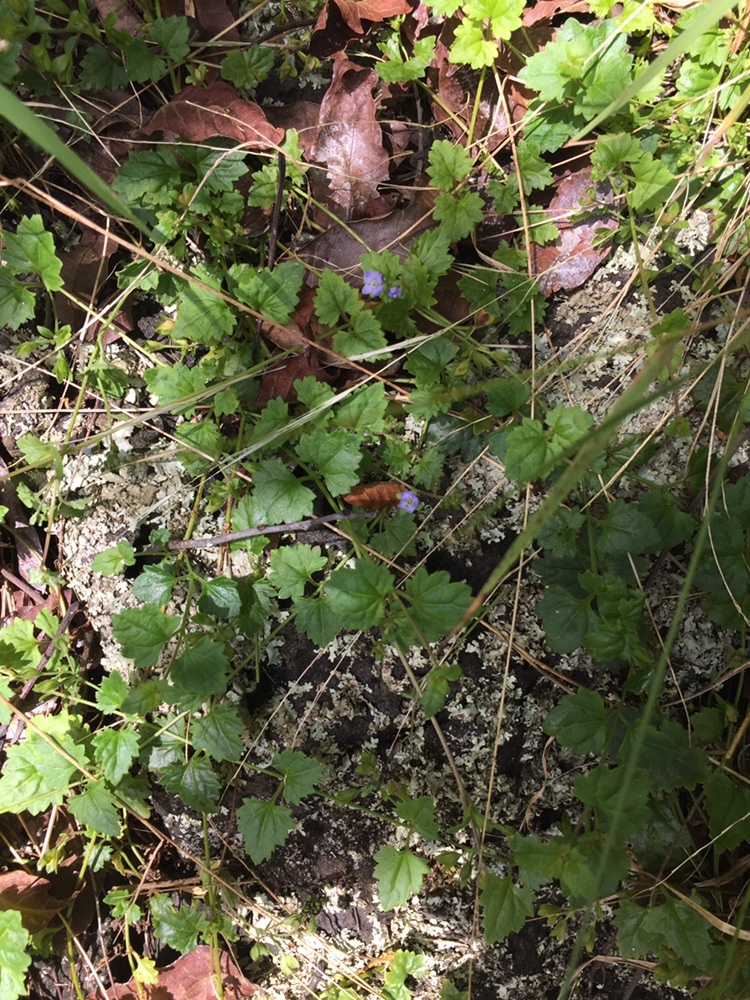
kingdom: Plantae
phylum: Tracheophyta
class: Magnoliopsida
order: Lamiales
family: Plantaginaceae
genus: Veronica
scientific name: Veronica plebeia
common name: Speedwell
